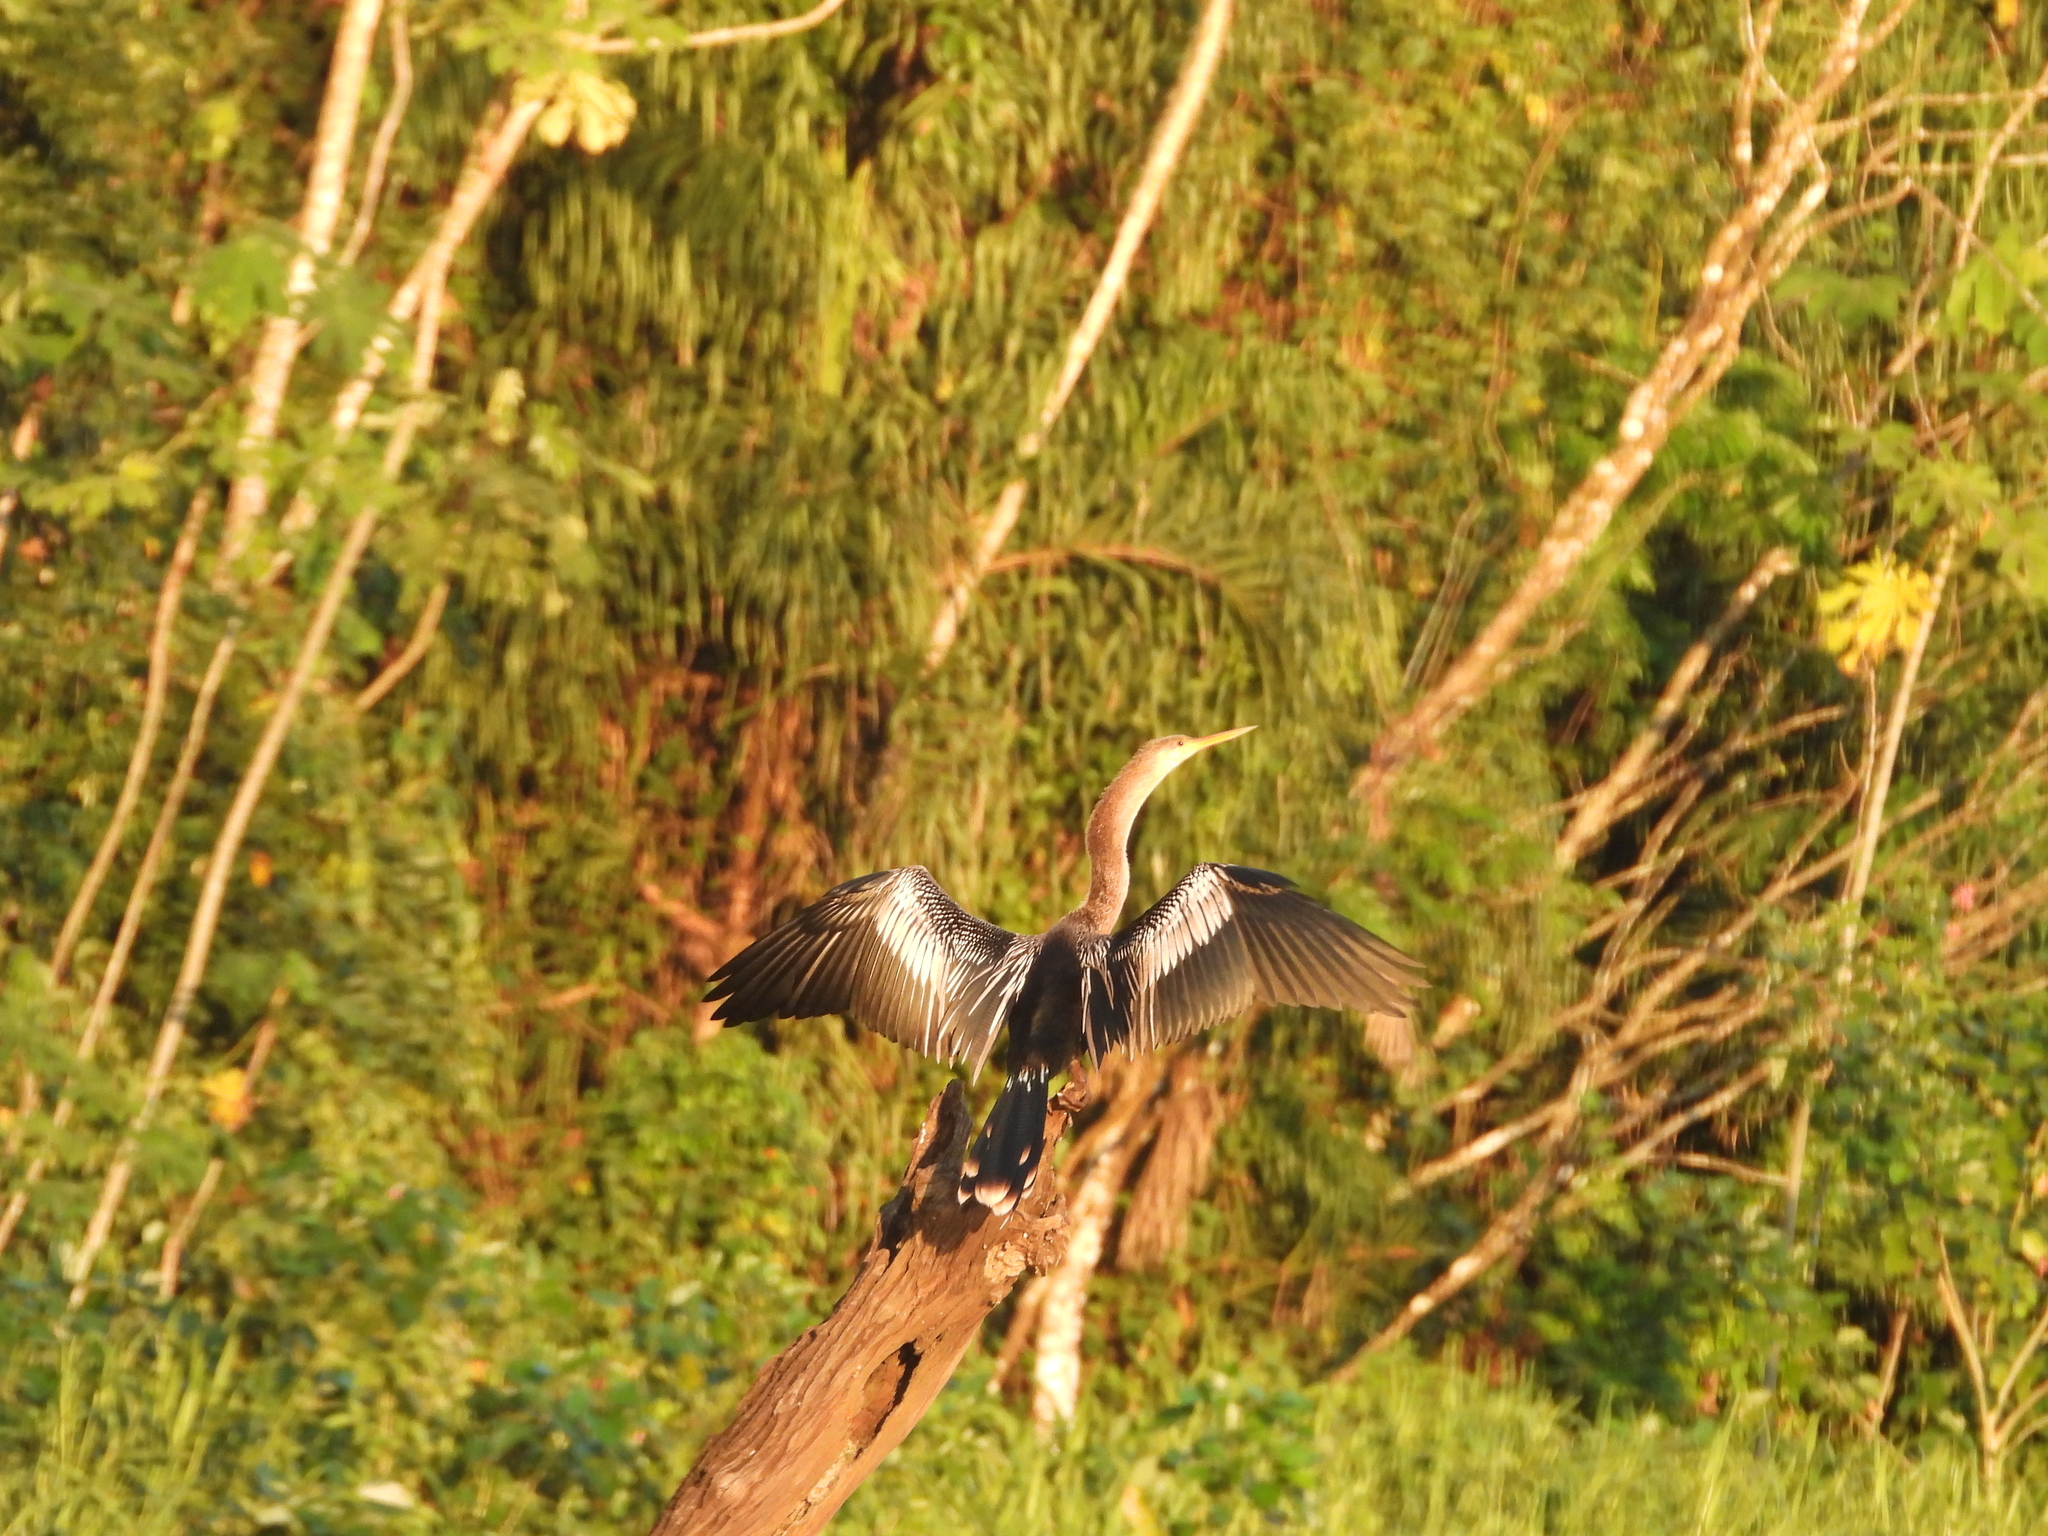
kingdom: Animalia
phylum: Chordata
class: Aves
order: Suliformes
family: Anhingidae
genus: Anhinga
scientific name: Anhinga anhinga
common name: Anhinga
